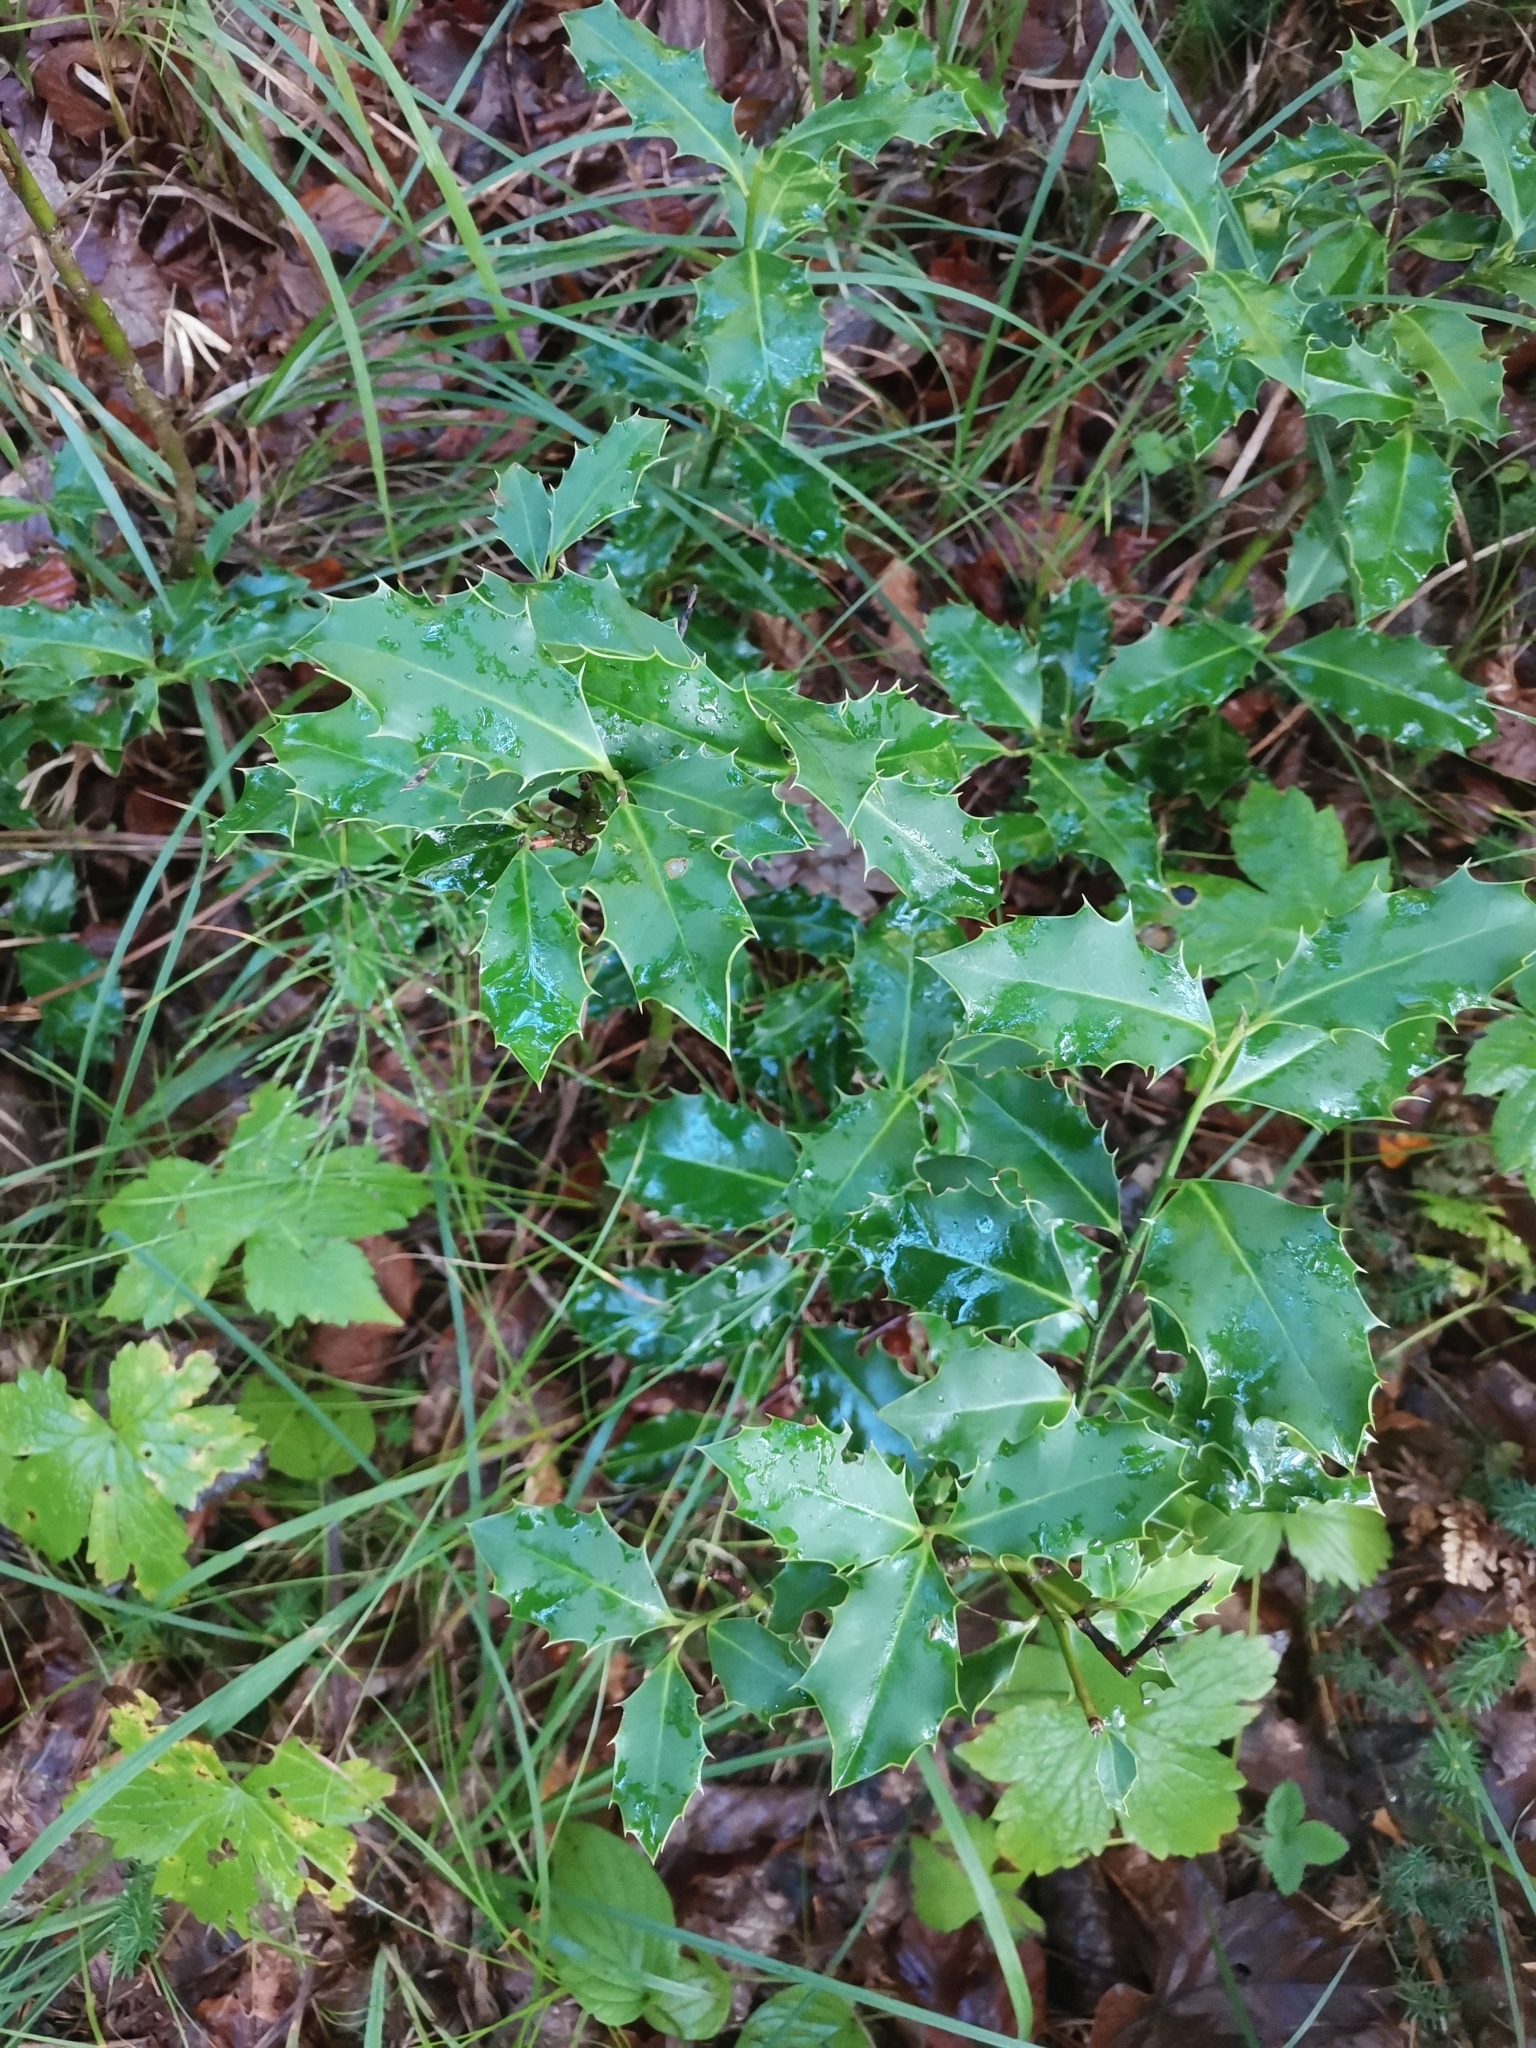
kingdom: Plantae
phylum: Tracheophyta
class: Magnoliopsida
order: Aquifoliales
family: Aquifoliaceae
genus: Ilex
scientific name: Ilex aquifolium
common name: English holly
